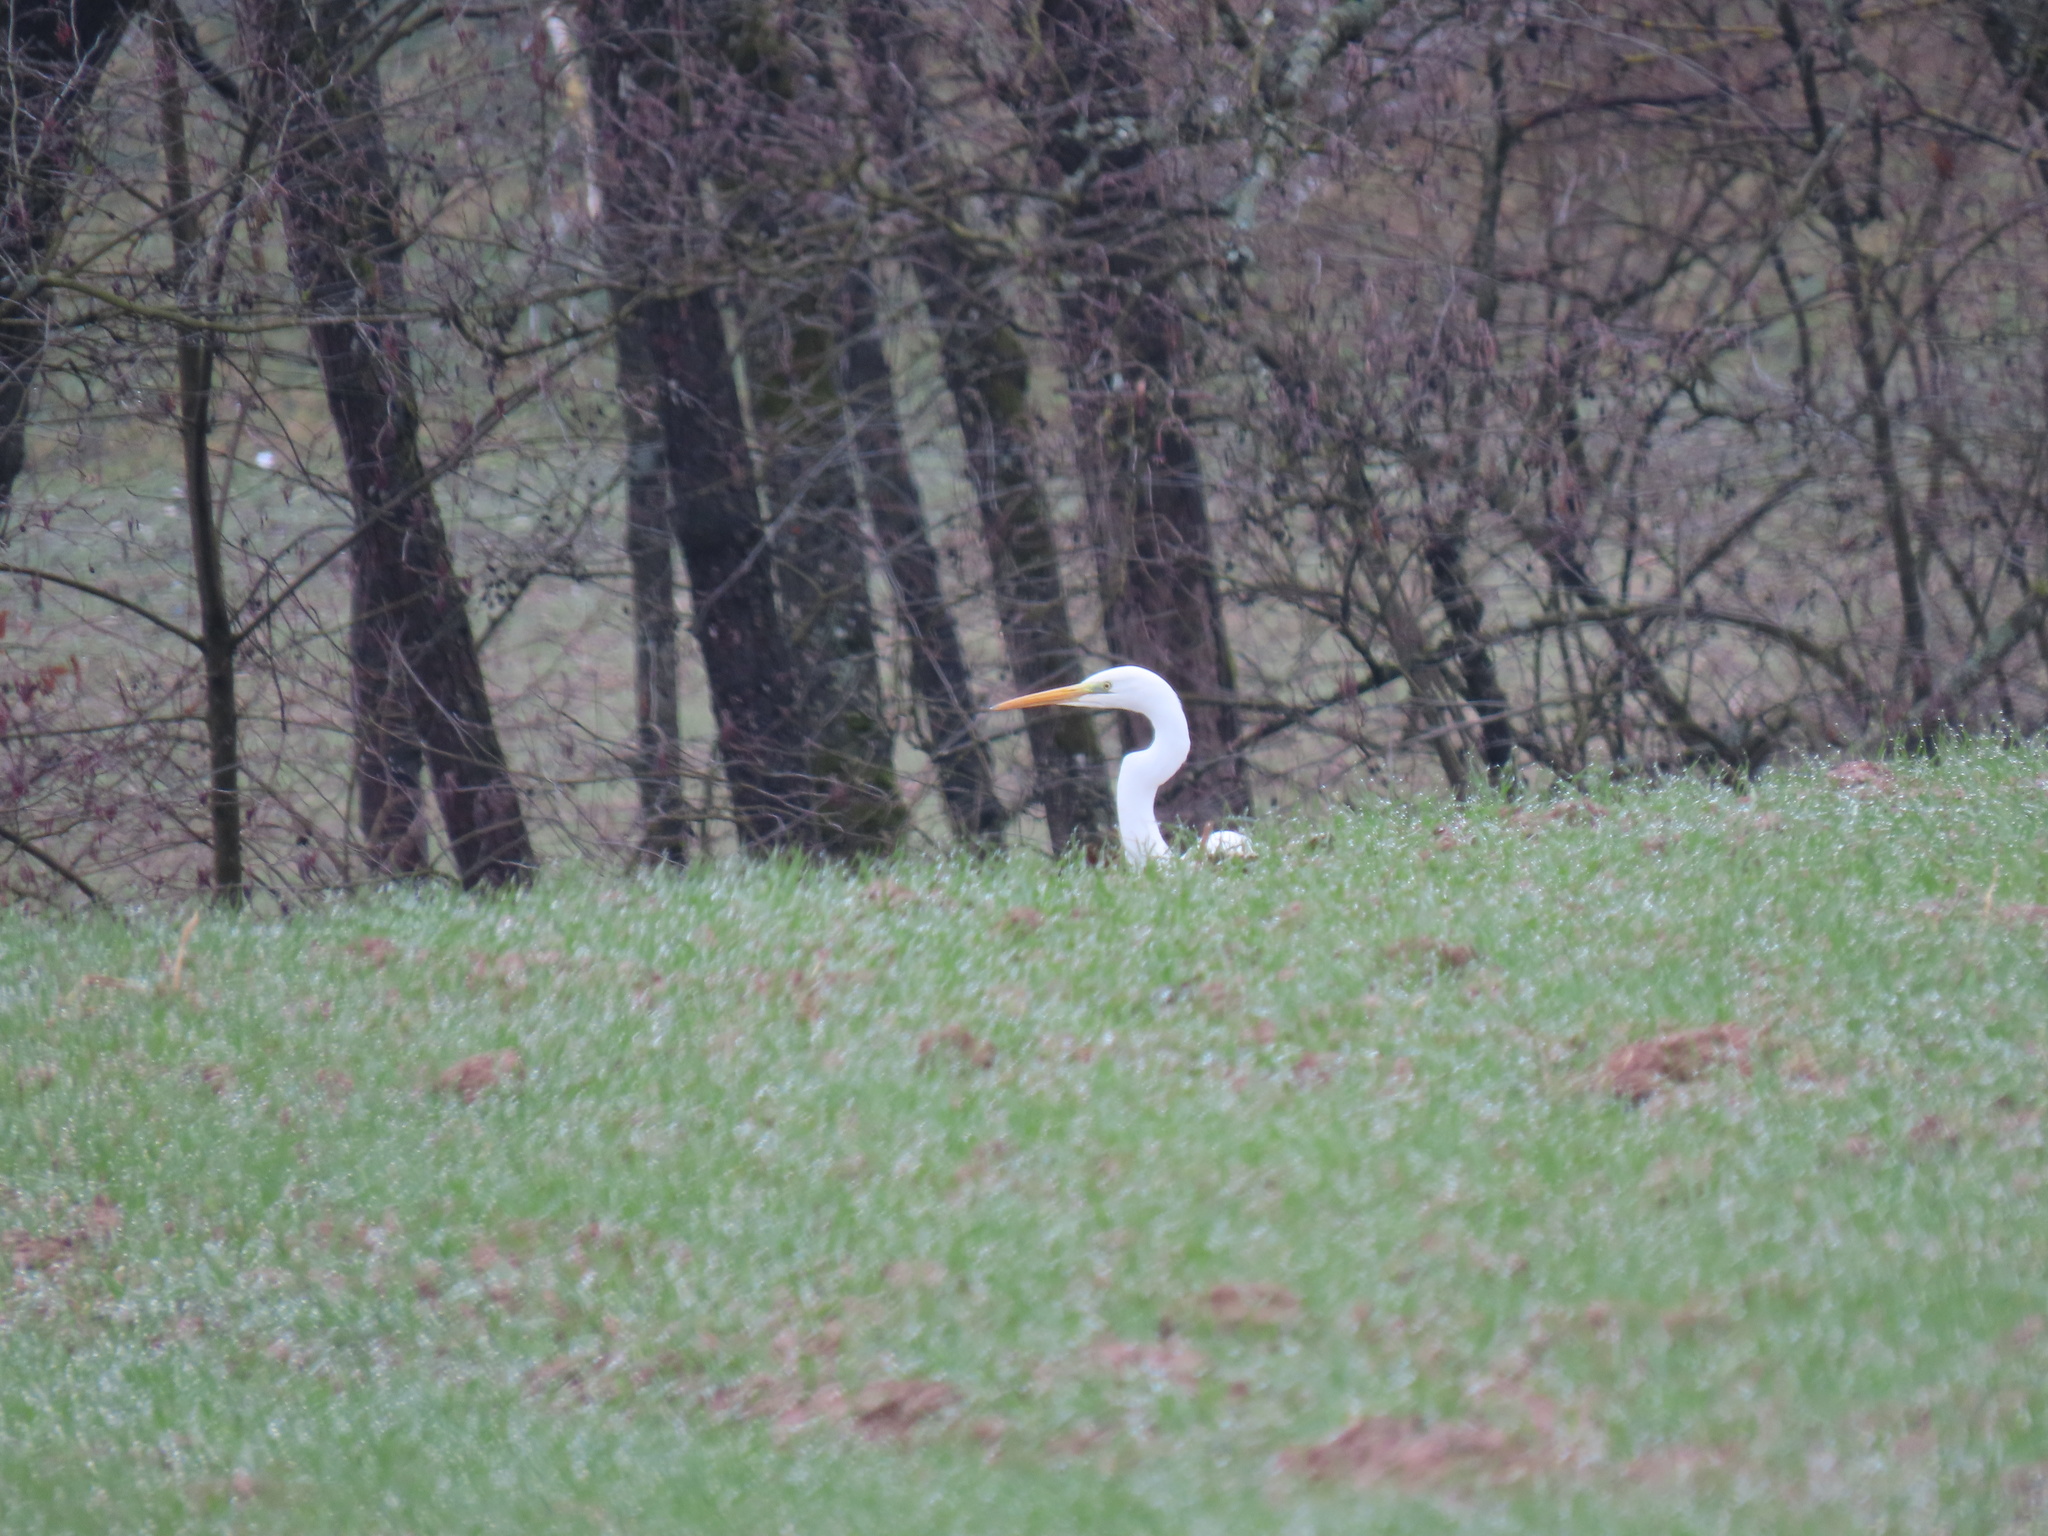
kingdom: Animalia
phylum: Chordata
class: Aves
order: Pelecaniformes
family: Ardeidae
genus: Ardea
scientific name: Ardea alba
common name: Great egret
